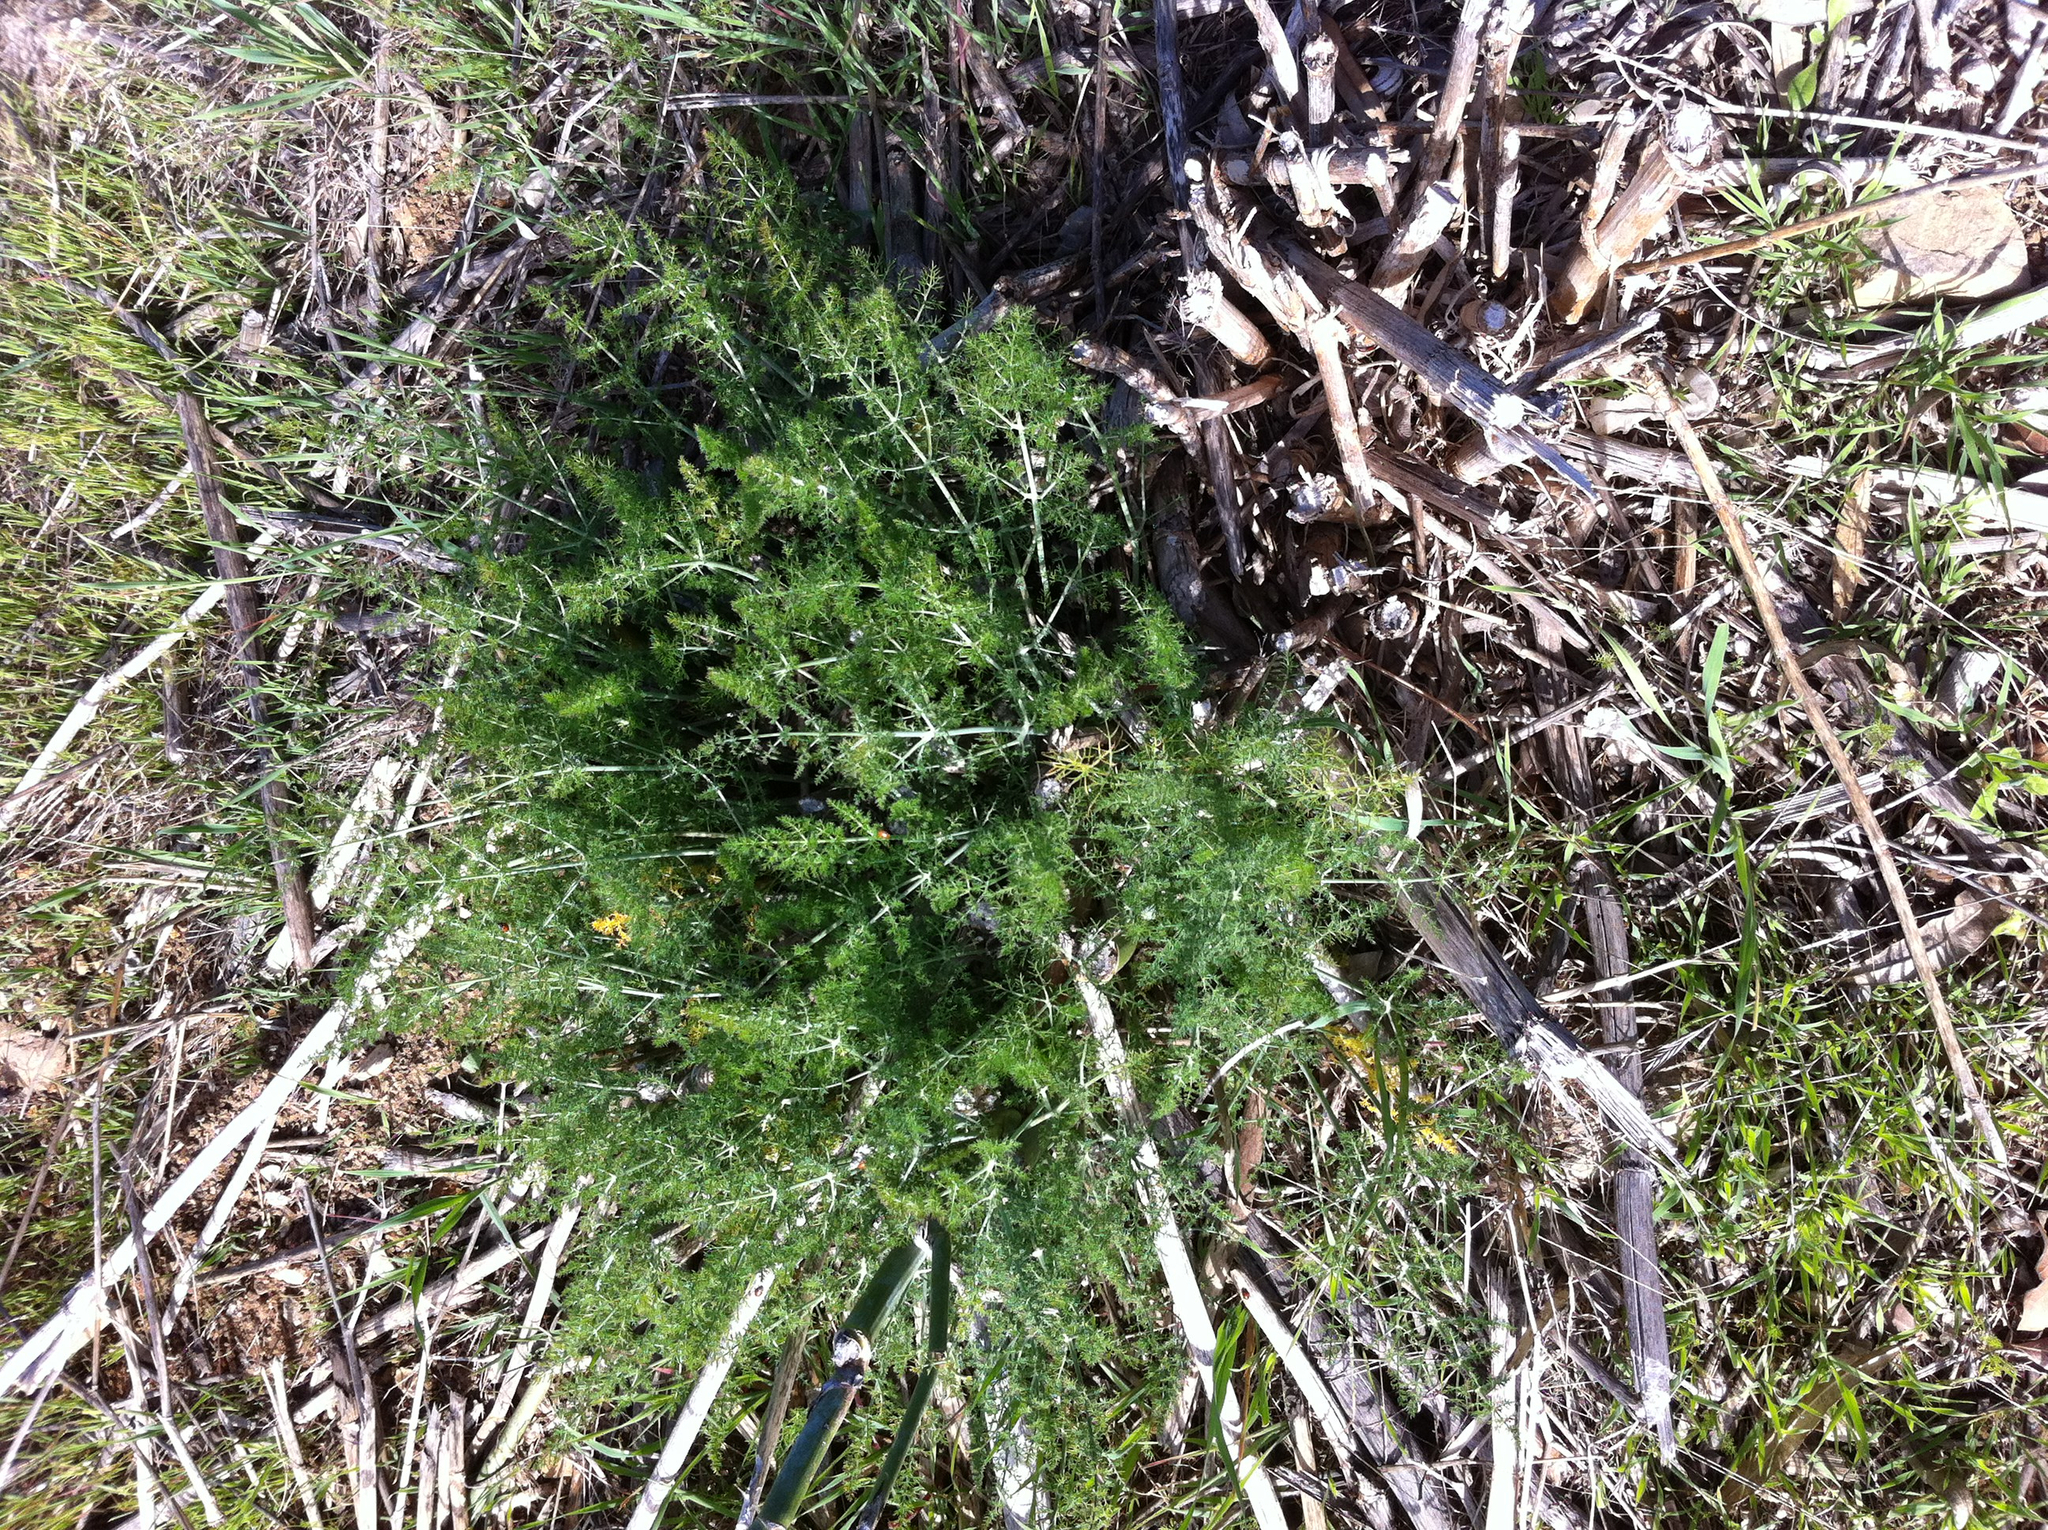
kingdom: Plantae
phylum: Tracheophyta
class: Magnoliopsida
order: Apiales
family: Apiaceae
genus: Foeniculum
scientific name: Foeniculum vulgare
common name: Fennel
